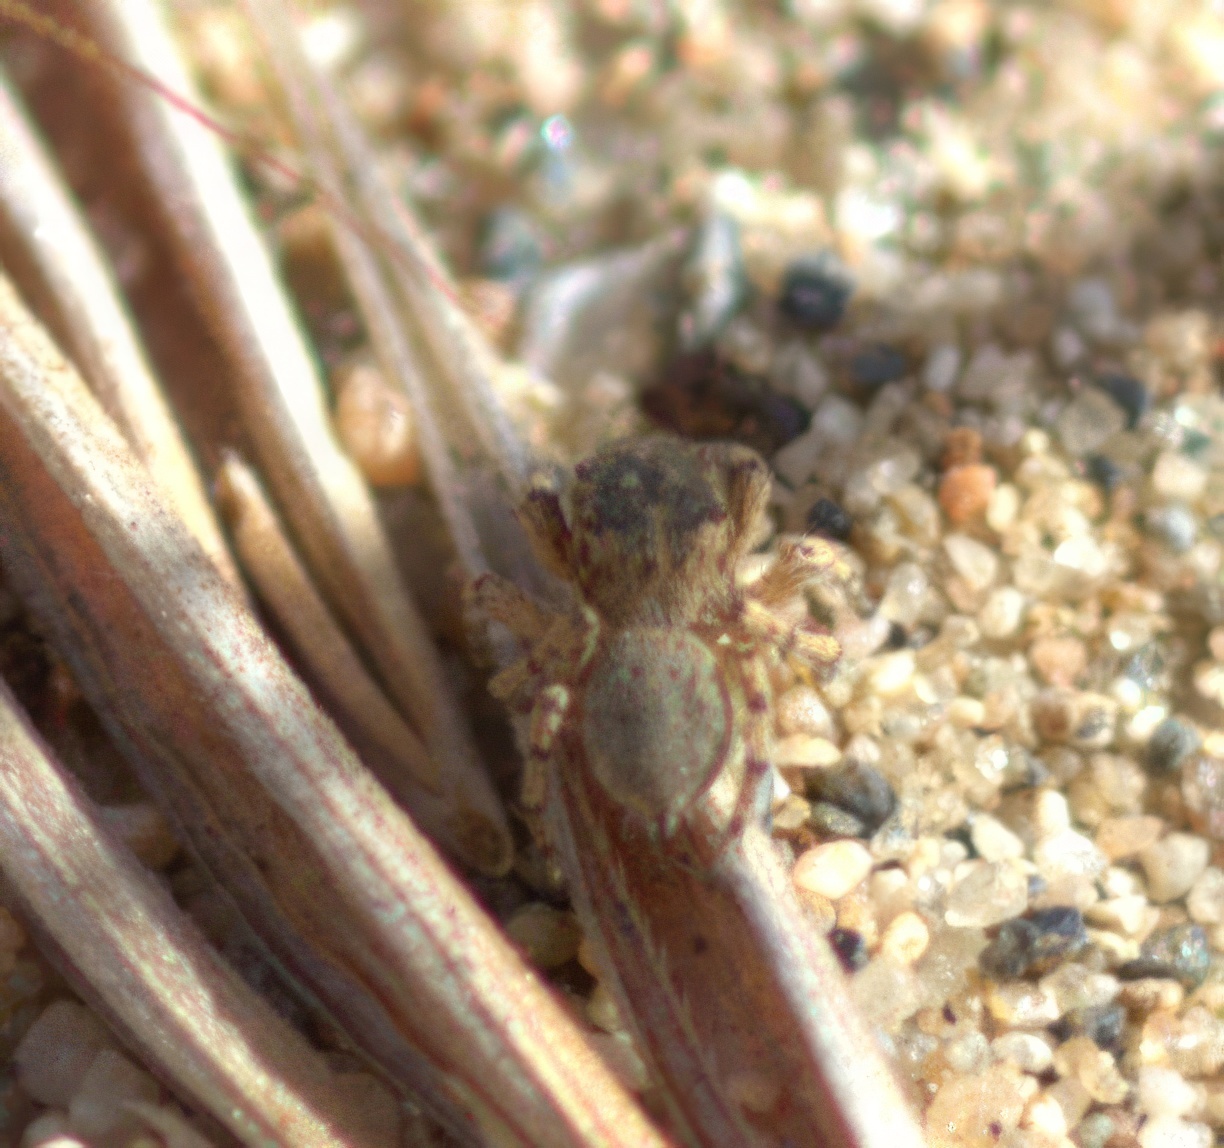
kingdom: Animalia
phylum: Arthropoda
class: Arachnida
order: Araneae
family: Salticidae
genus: Habronattus
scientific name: Habronattus ustulatus
